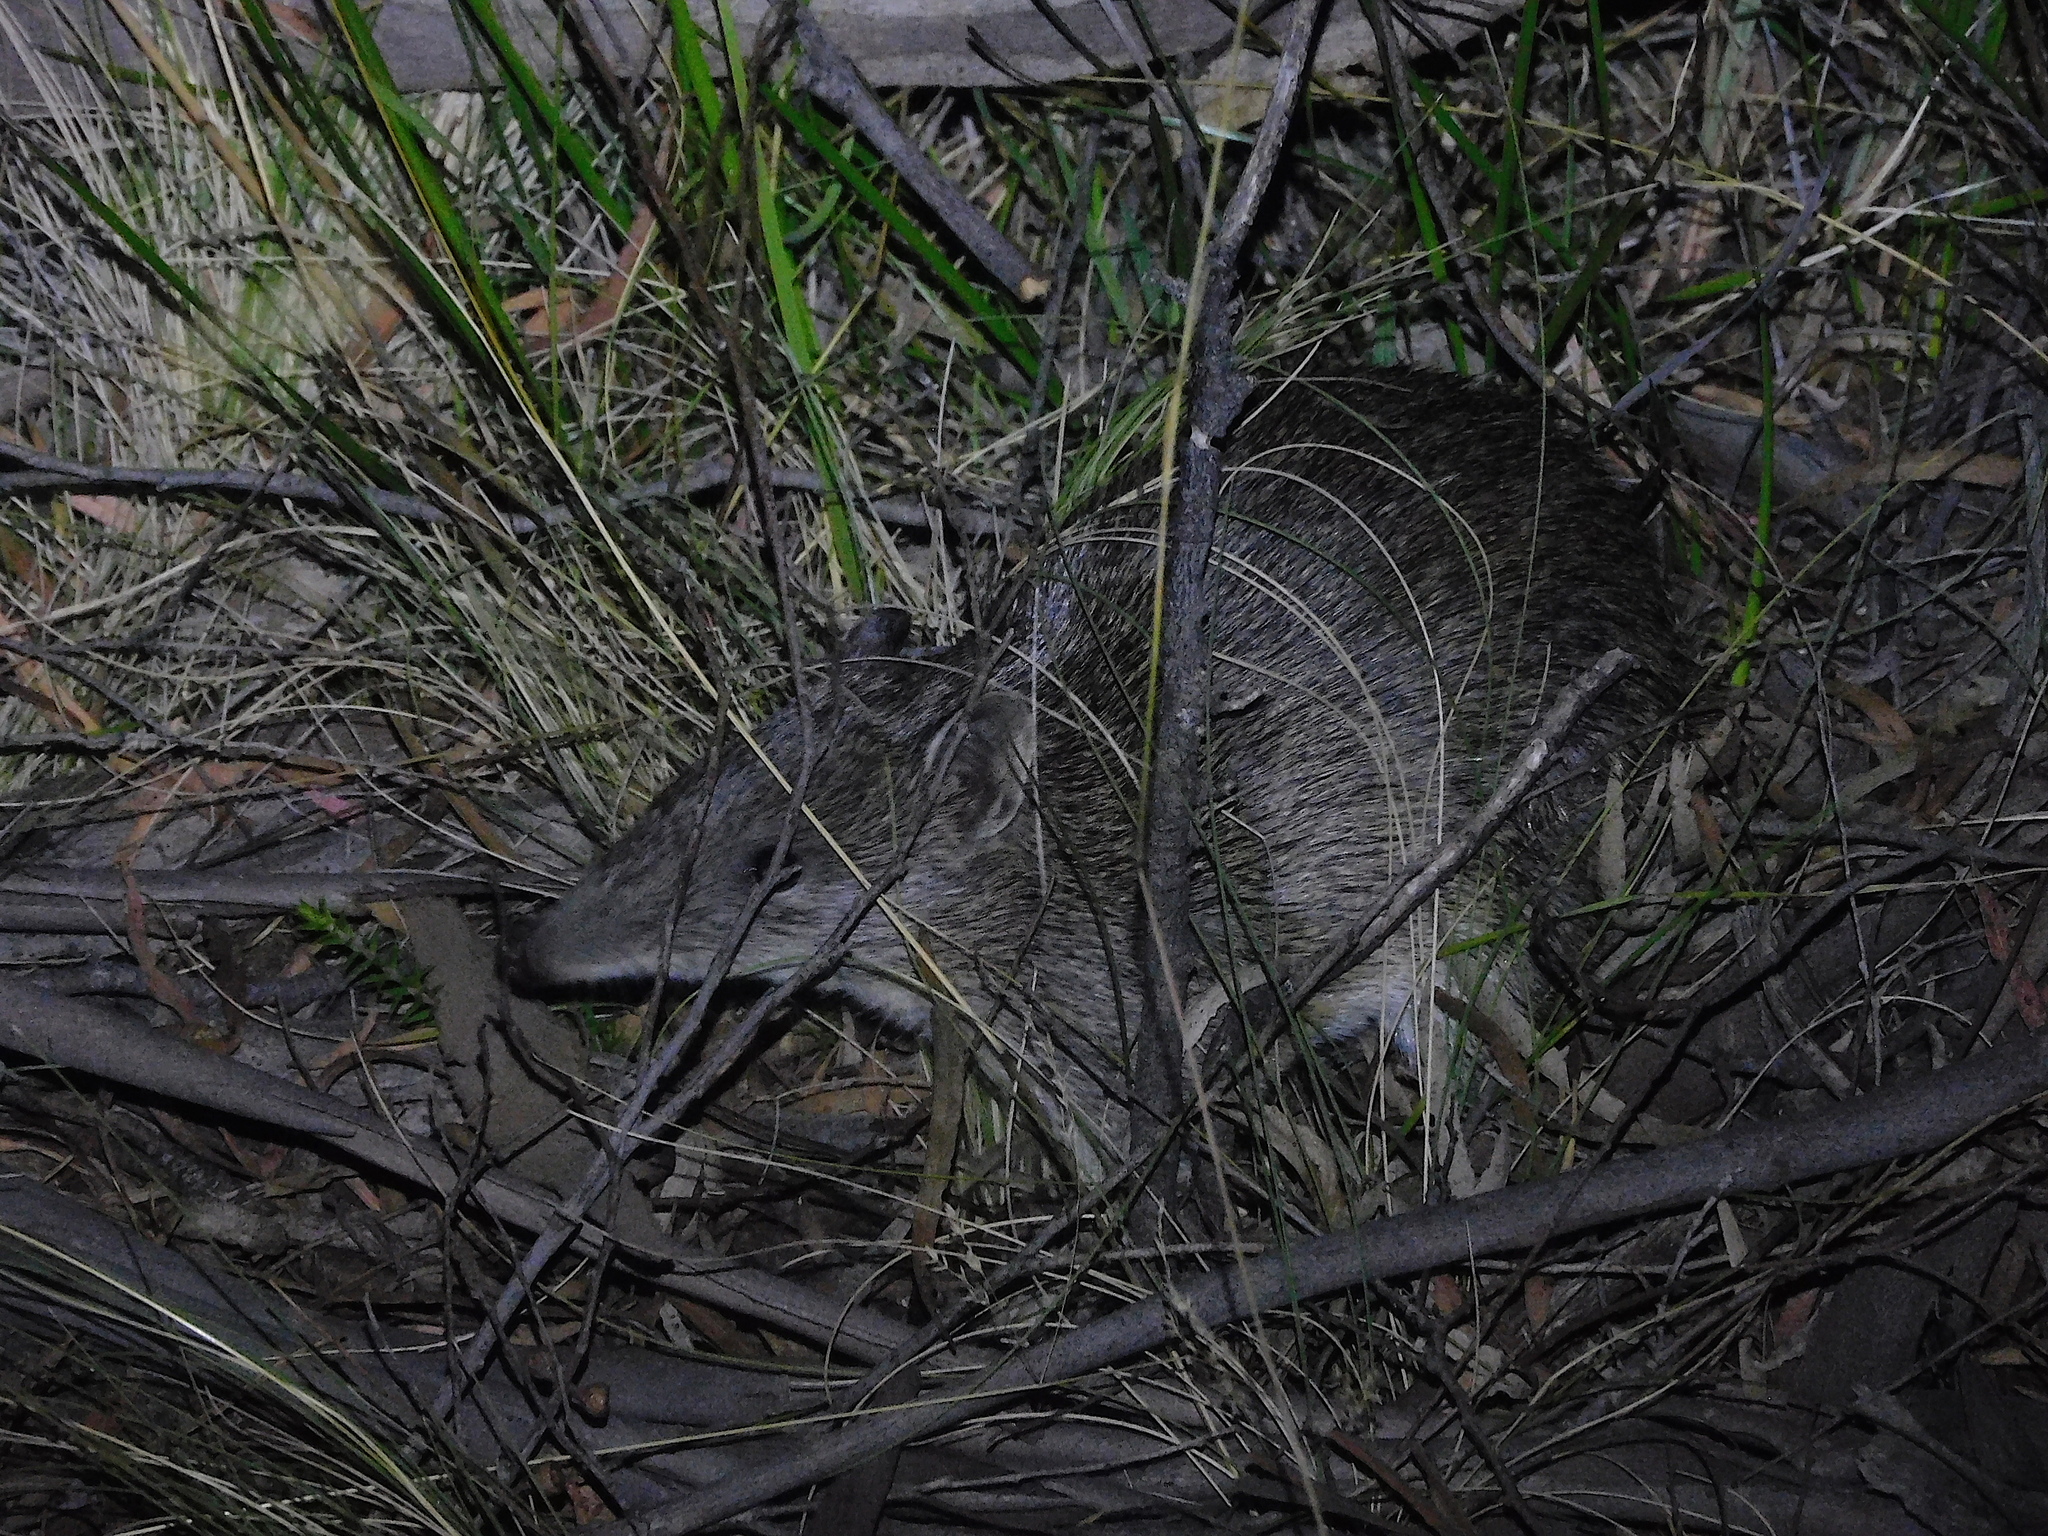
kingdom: Animalia
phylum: Chordata
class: Mammalia
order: Peramelemorphia
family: Peramelidae
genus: Isoodon
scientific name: Isoodon obesulus
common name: Southern brown bandicoot
